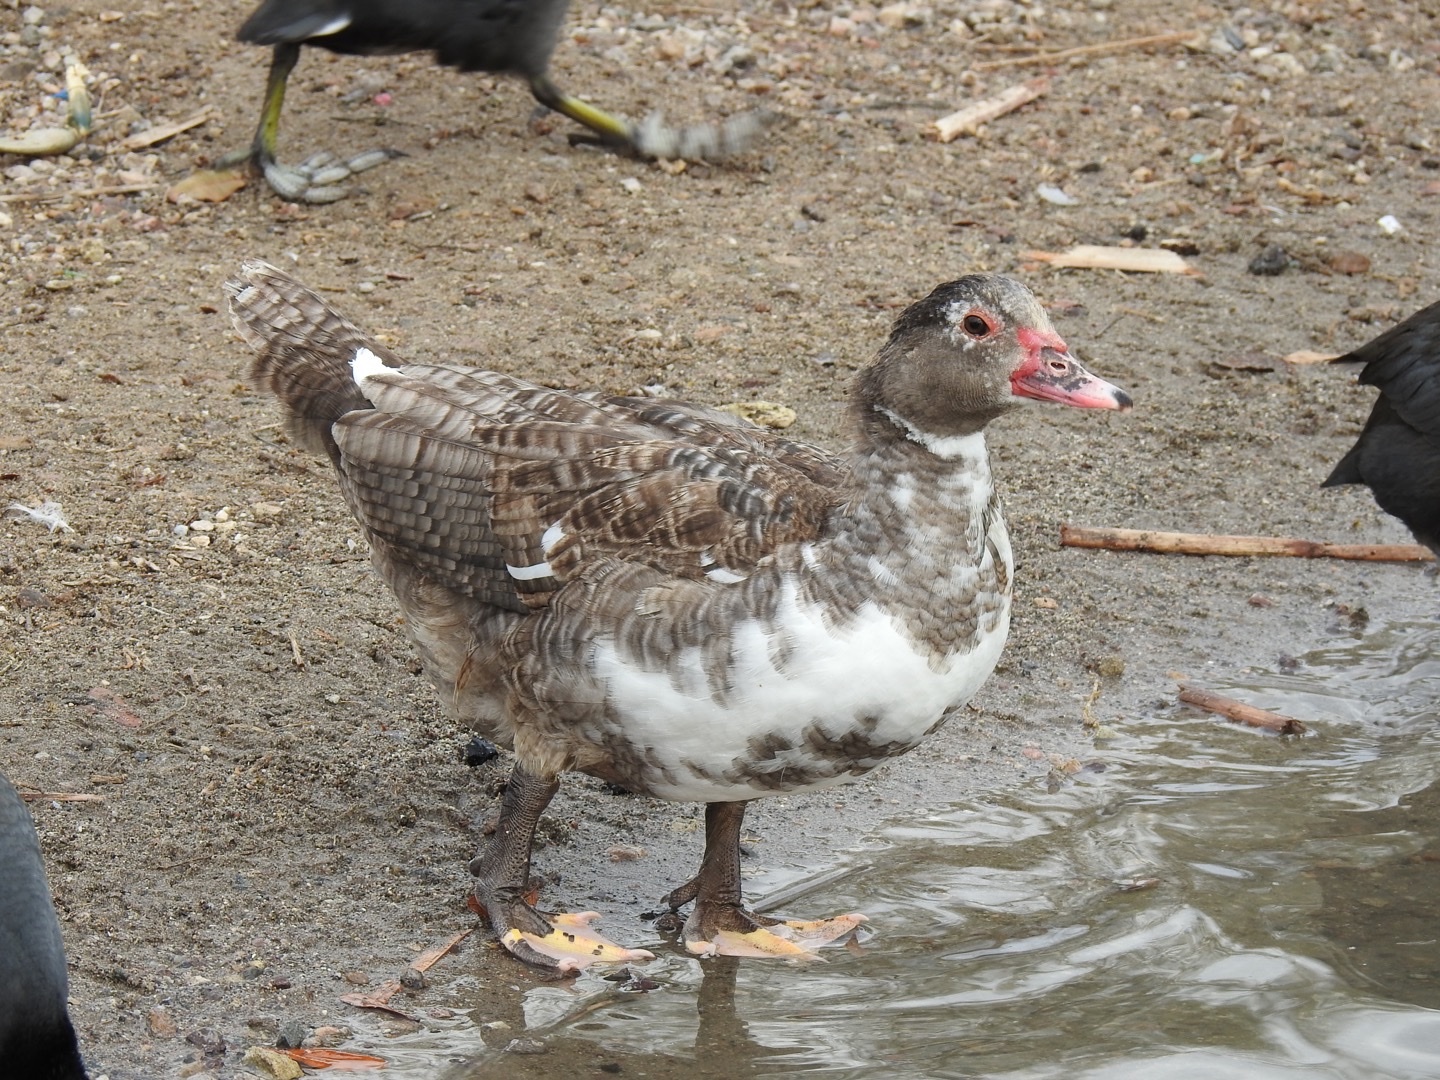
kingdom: Animalia
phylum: Chordata
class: Aves
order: Anseriformes
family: Anatidae
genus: Cairina
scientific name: Cairina moschata
